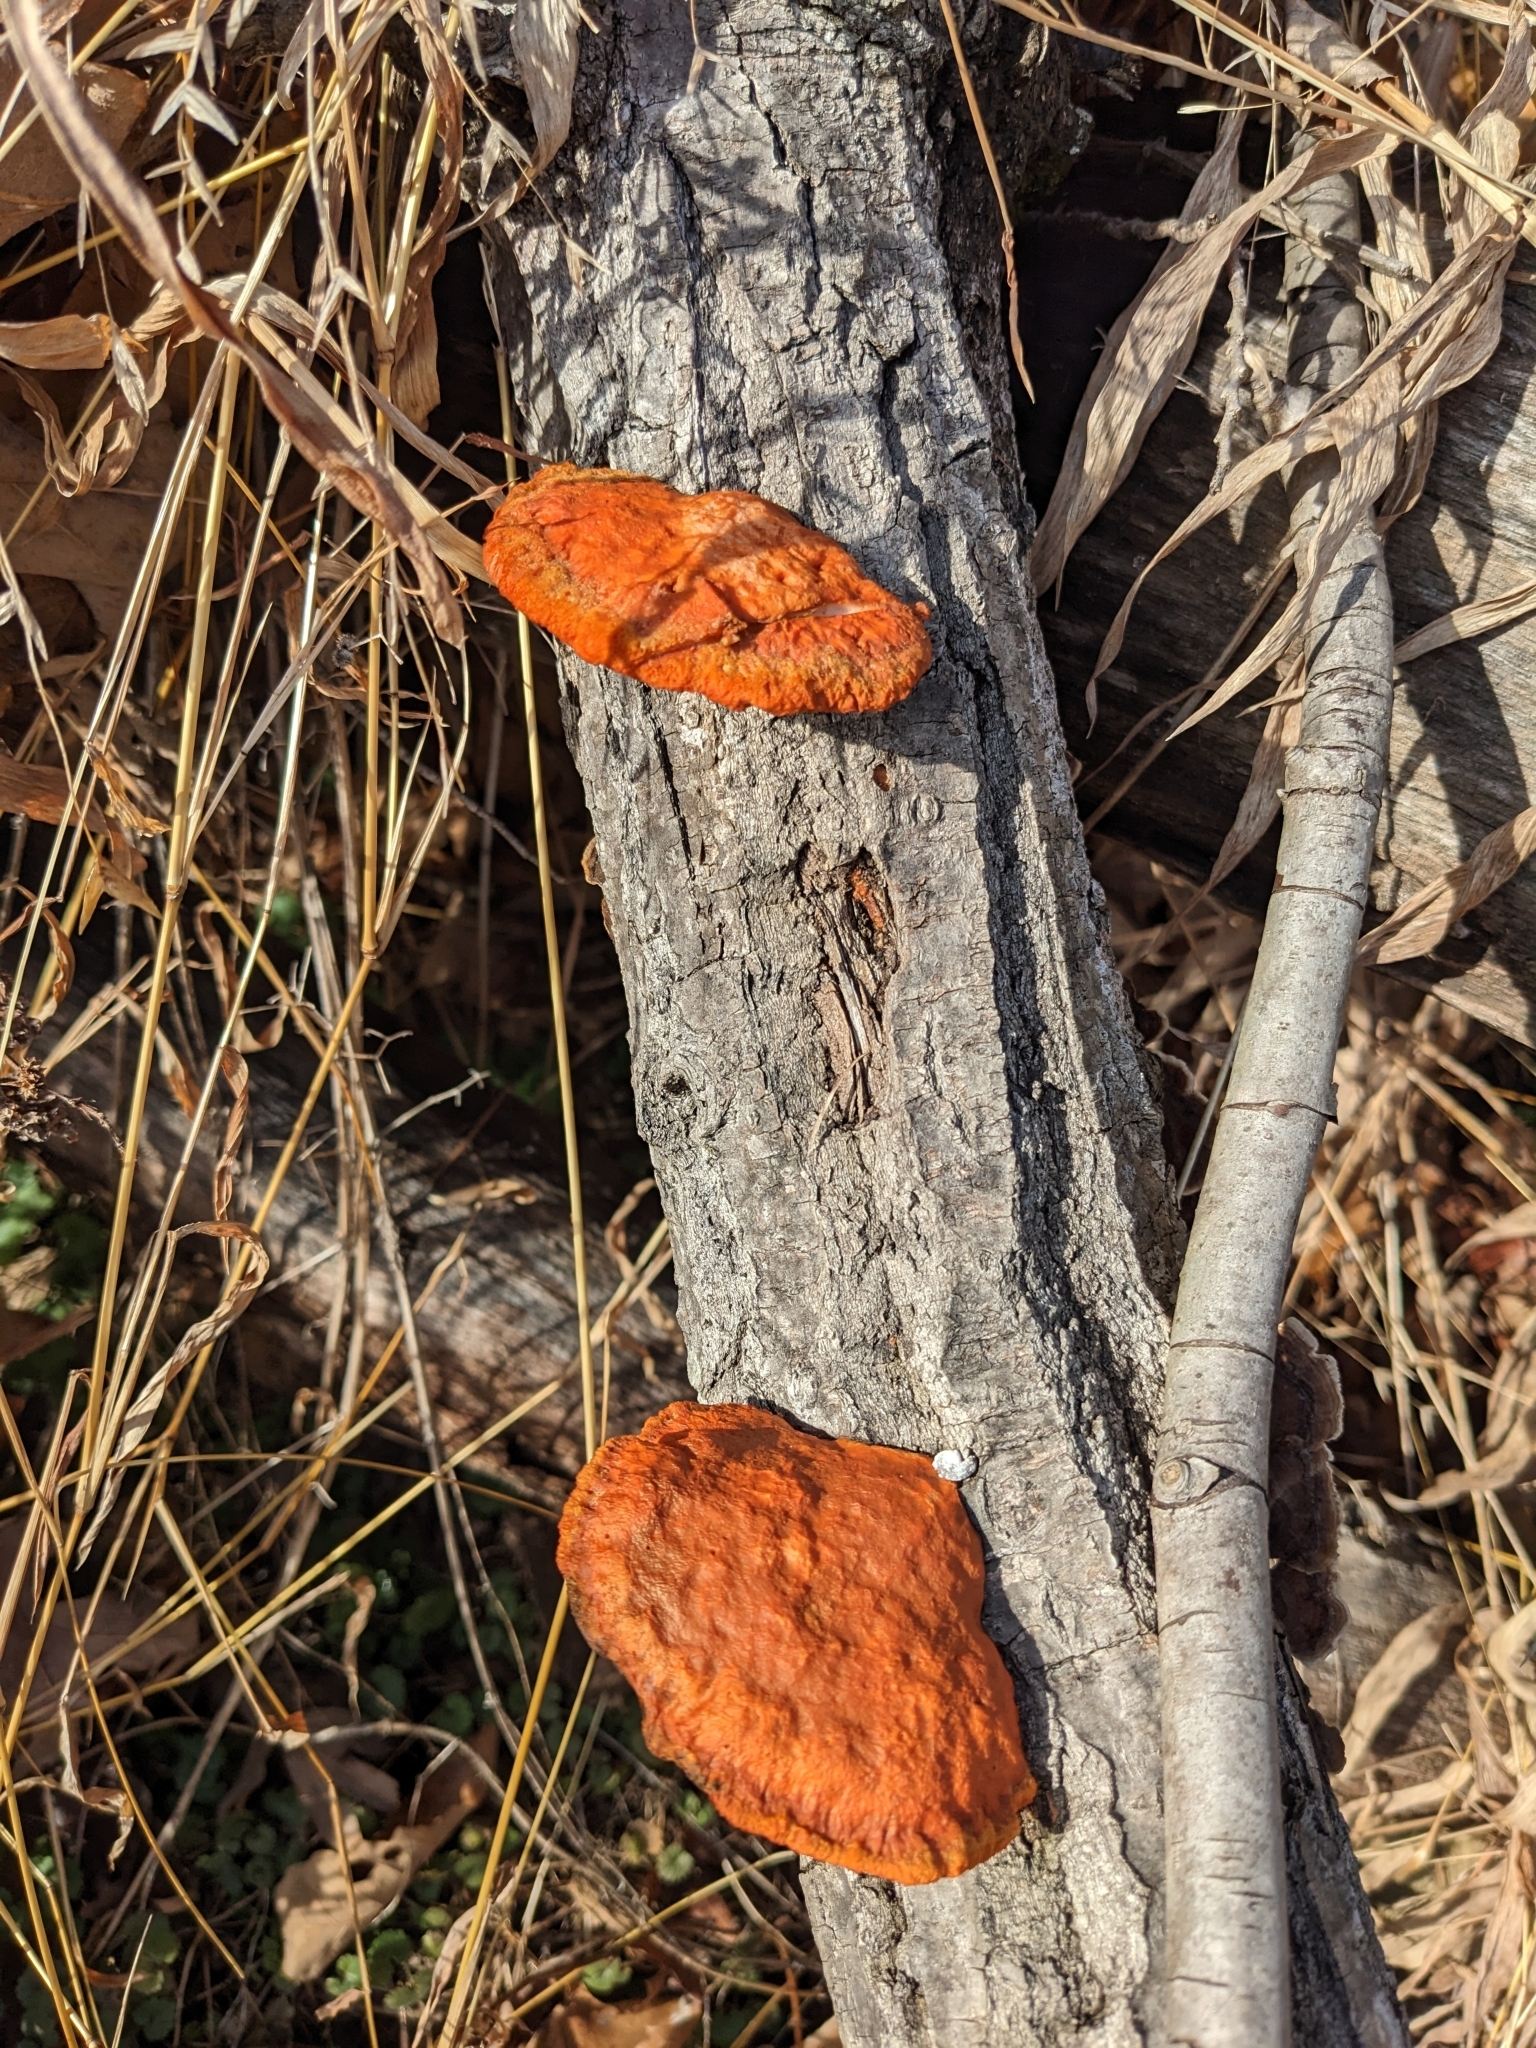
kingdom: Fungi
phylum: Basidiomycota
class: Agaricomycetes
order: Polyporales
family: Polyporaceae
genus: Trametes
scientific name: Trametes cinnabarina
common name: Northern cinnabar polypore
